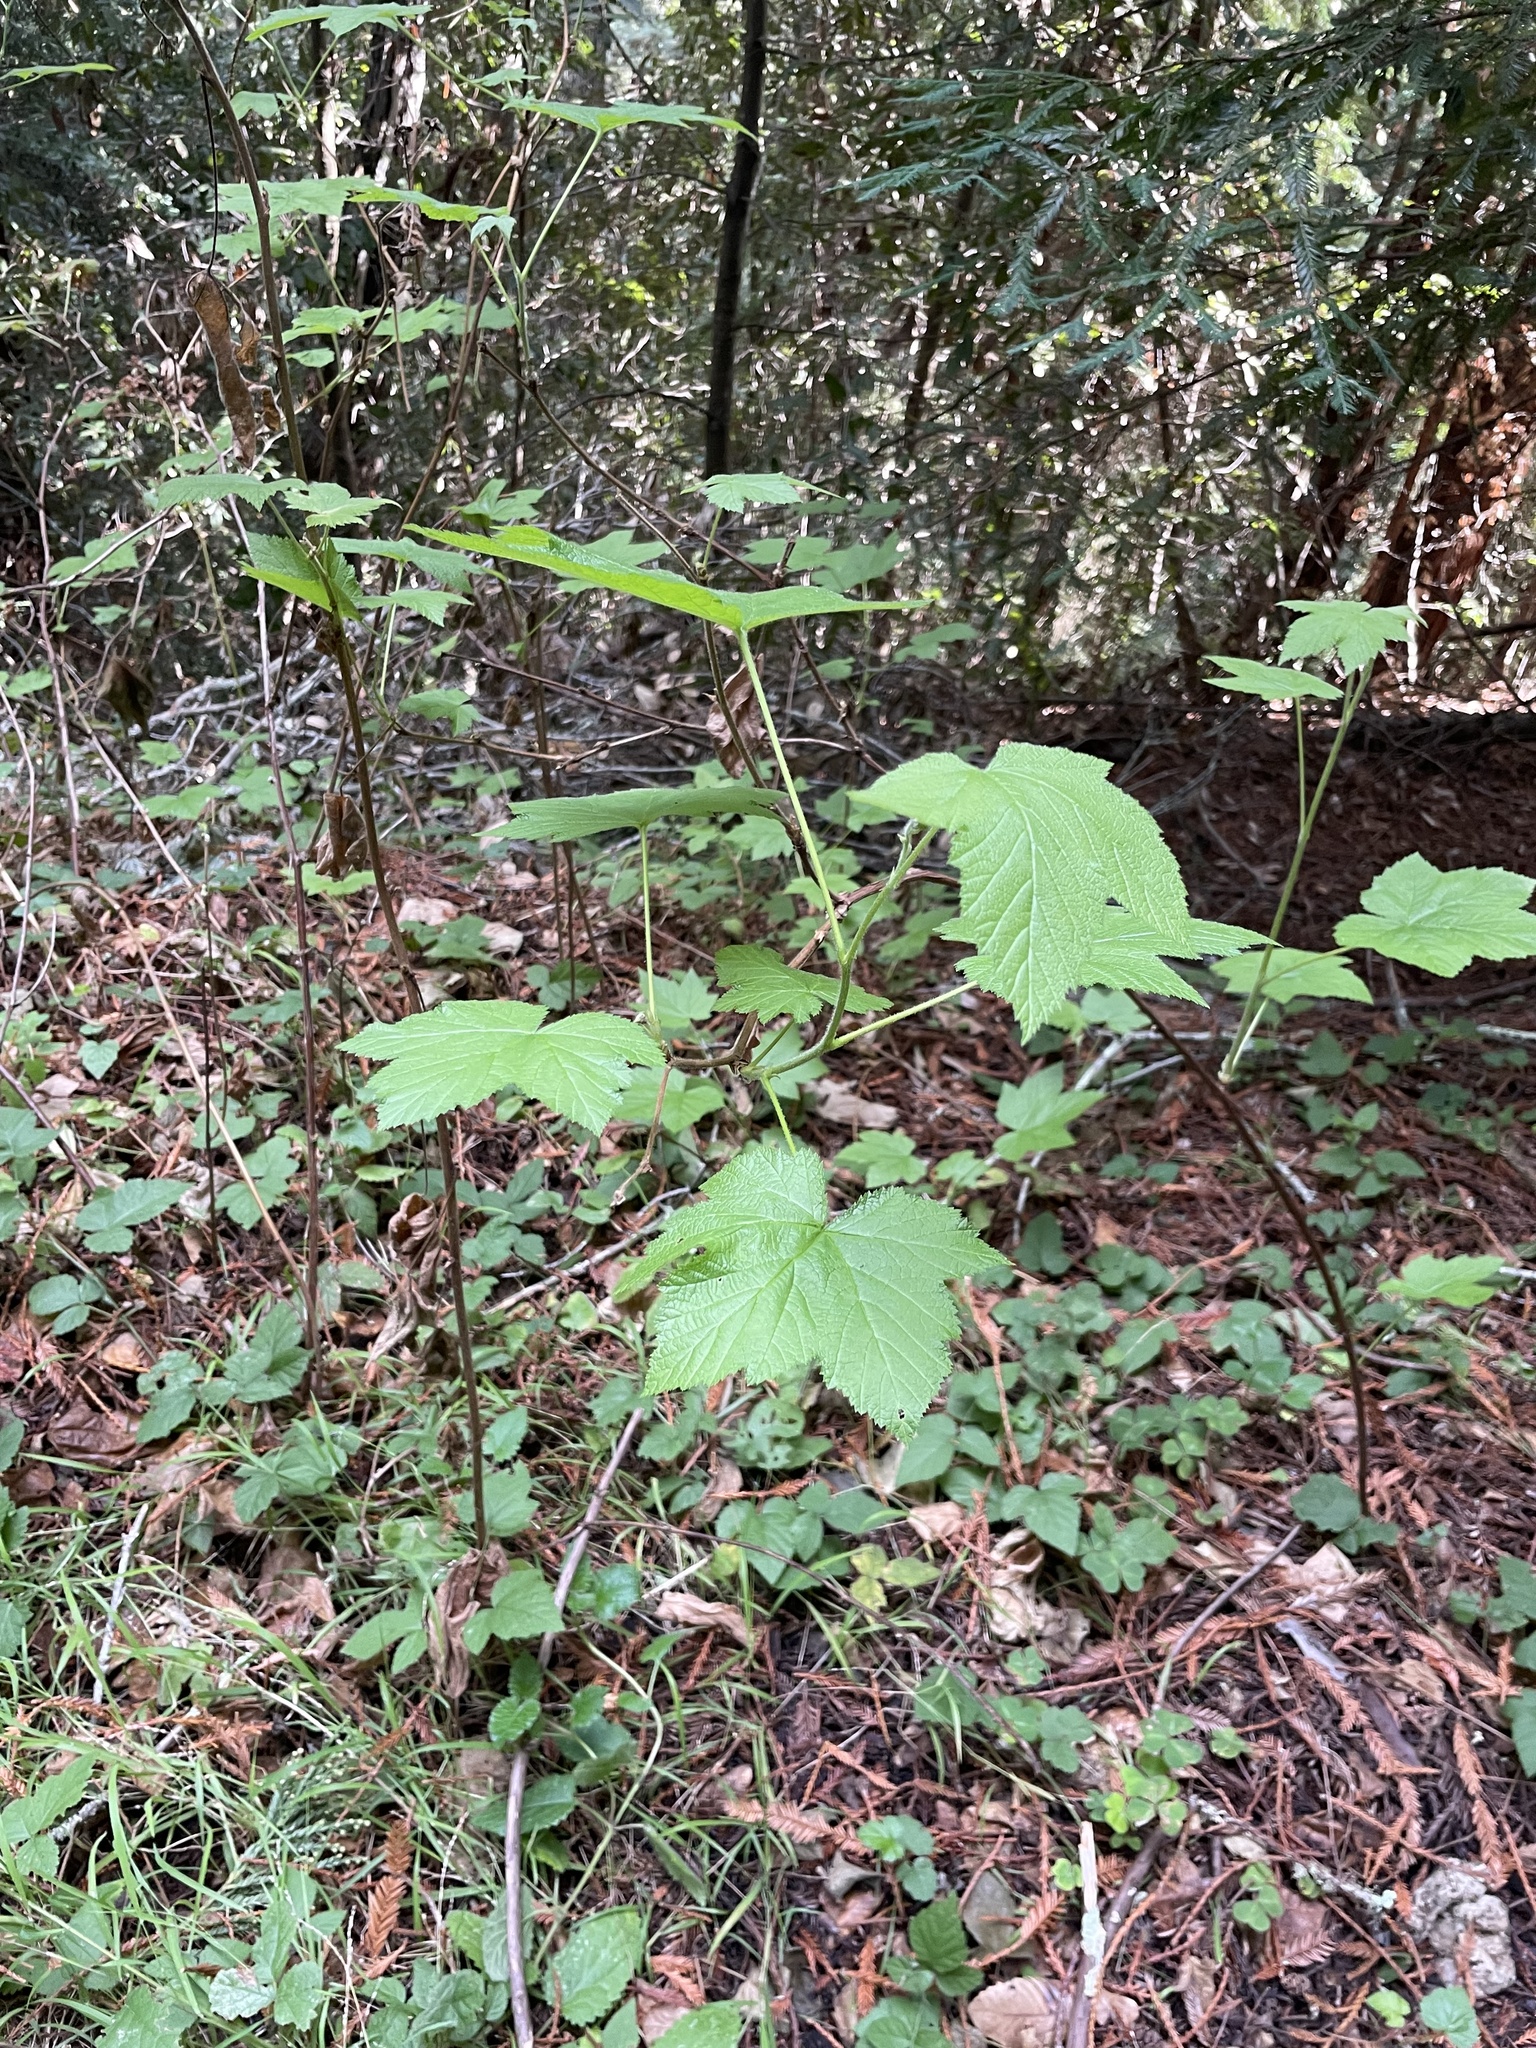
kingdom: Plantae
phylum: Tracheophyta
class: Magnoliopsida
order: Rosales
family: Rosaceae
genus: Rubus
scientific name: Rubus parviflorus
